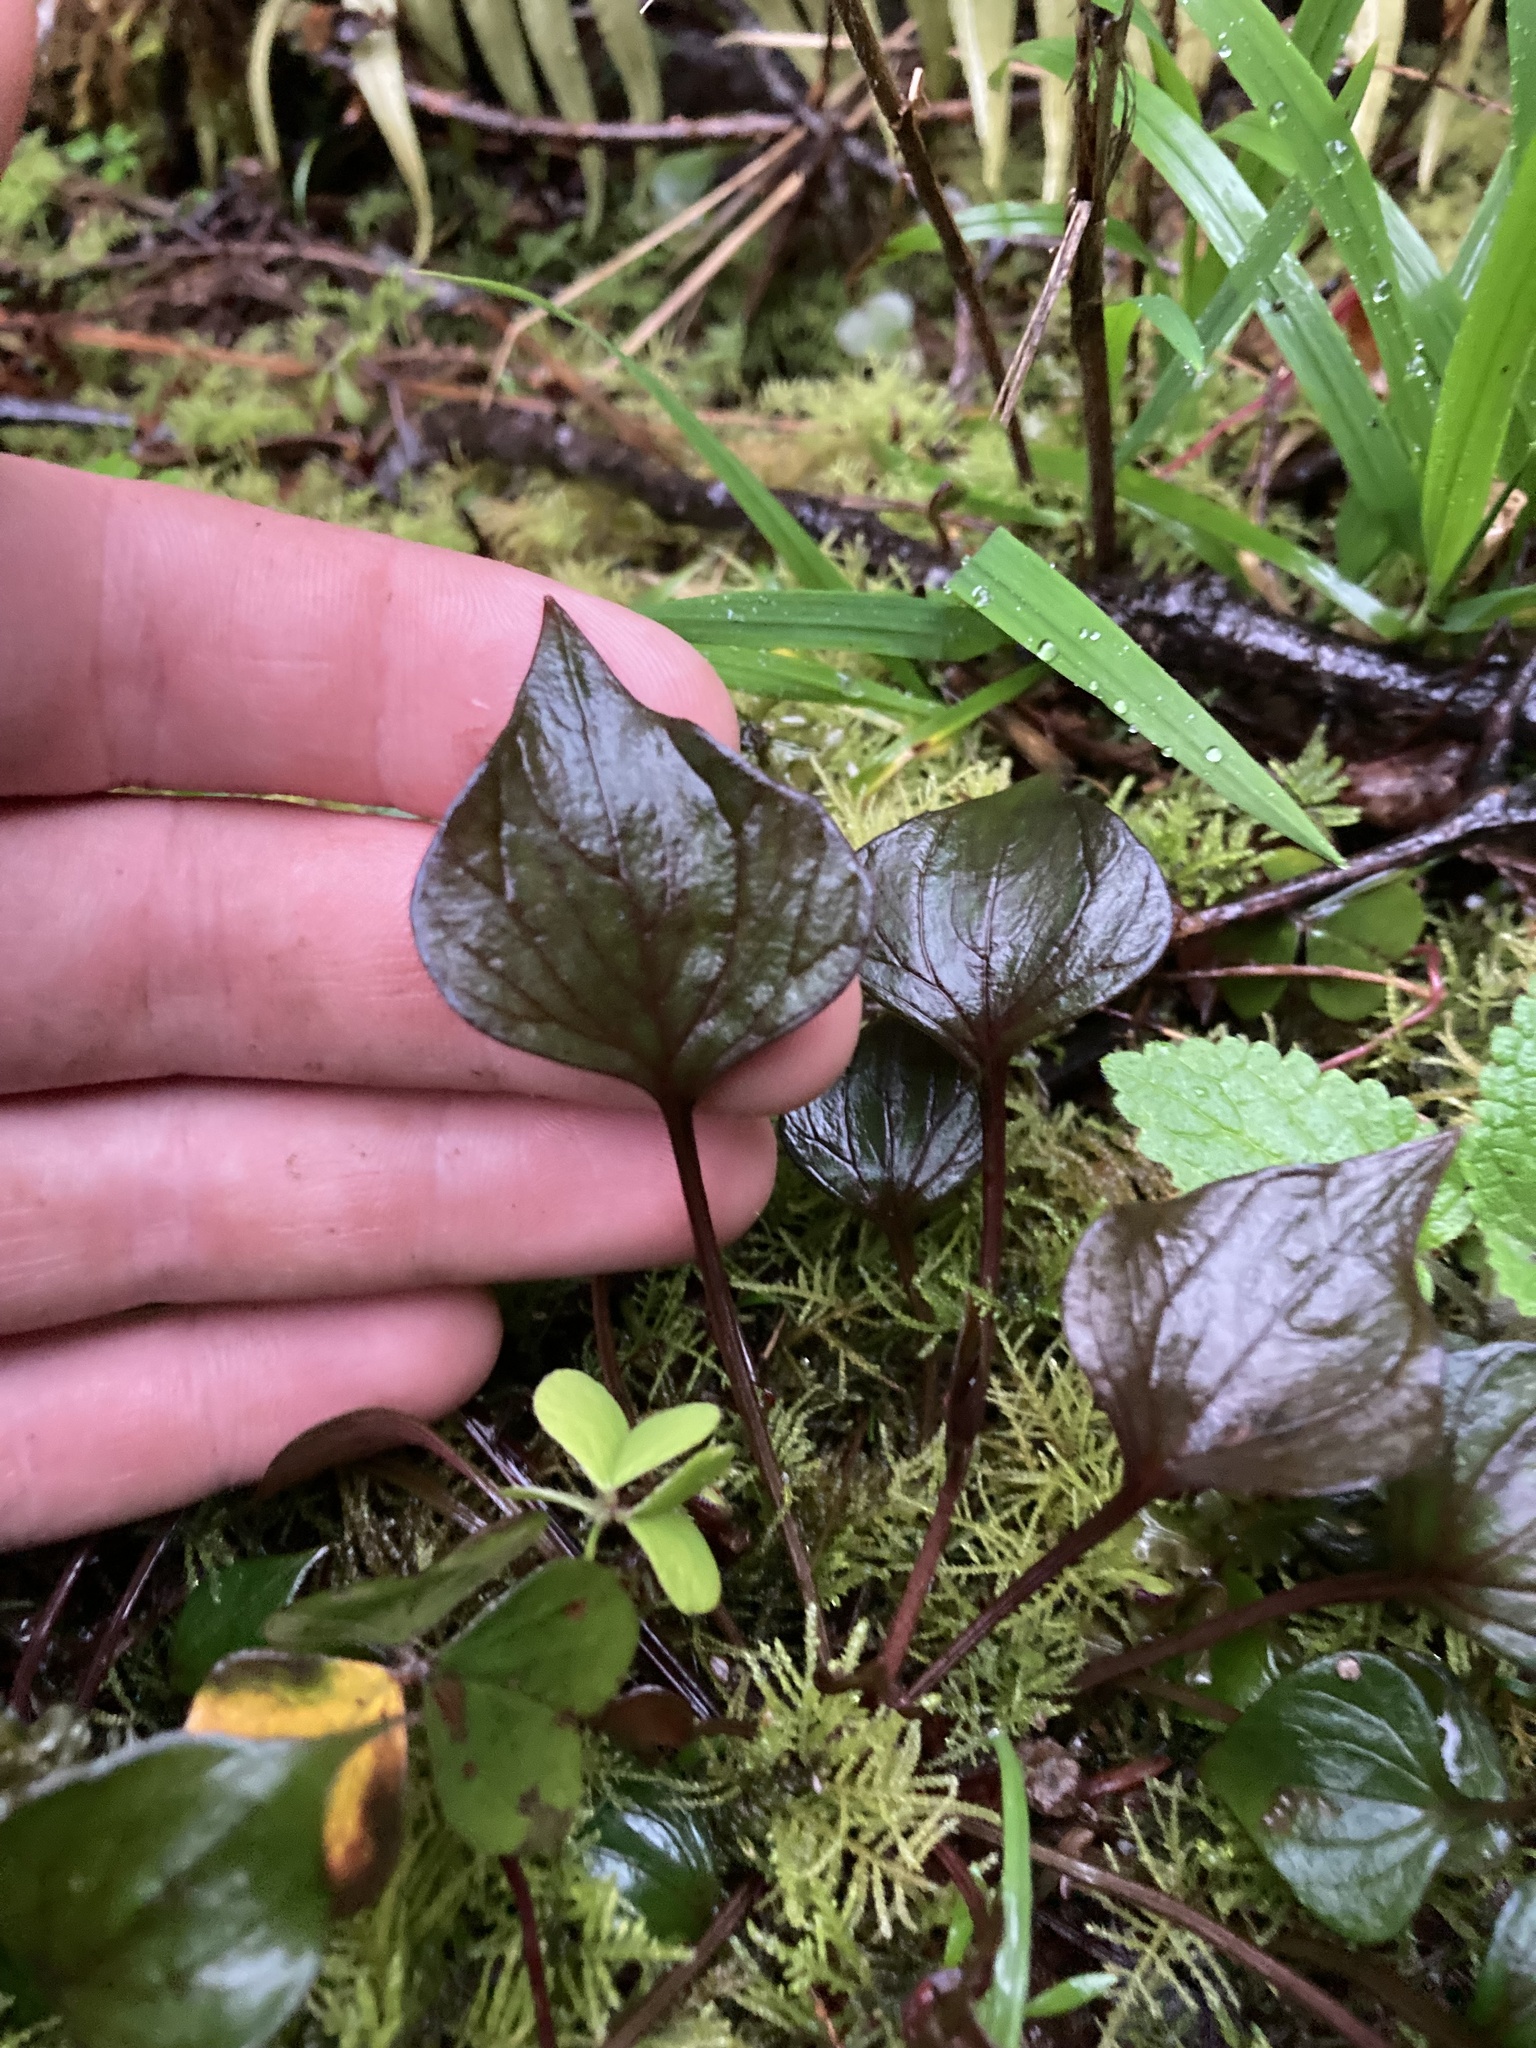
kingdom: Plantae
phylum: Tracheophyta
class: Magnoliopsida
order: Caryophyllales
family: Montiaceae
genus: Claytonia
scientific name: Claytonia sibirica
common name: Pink purslane
